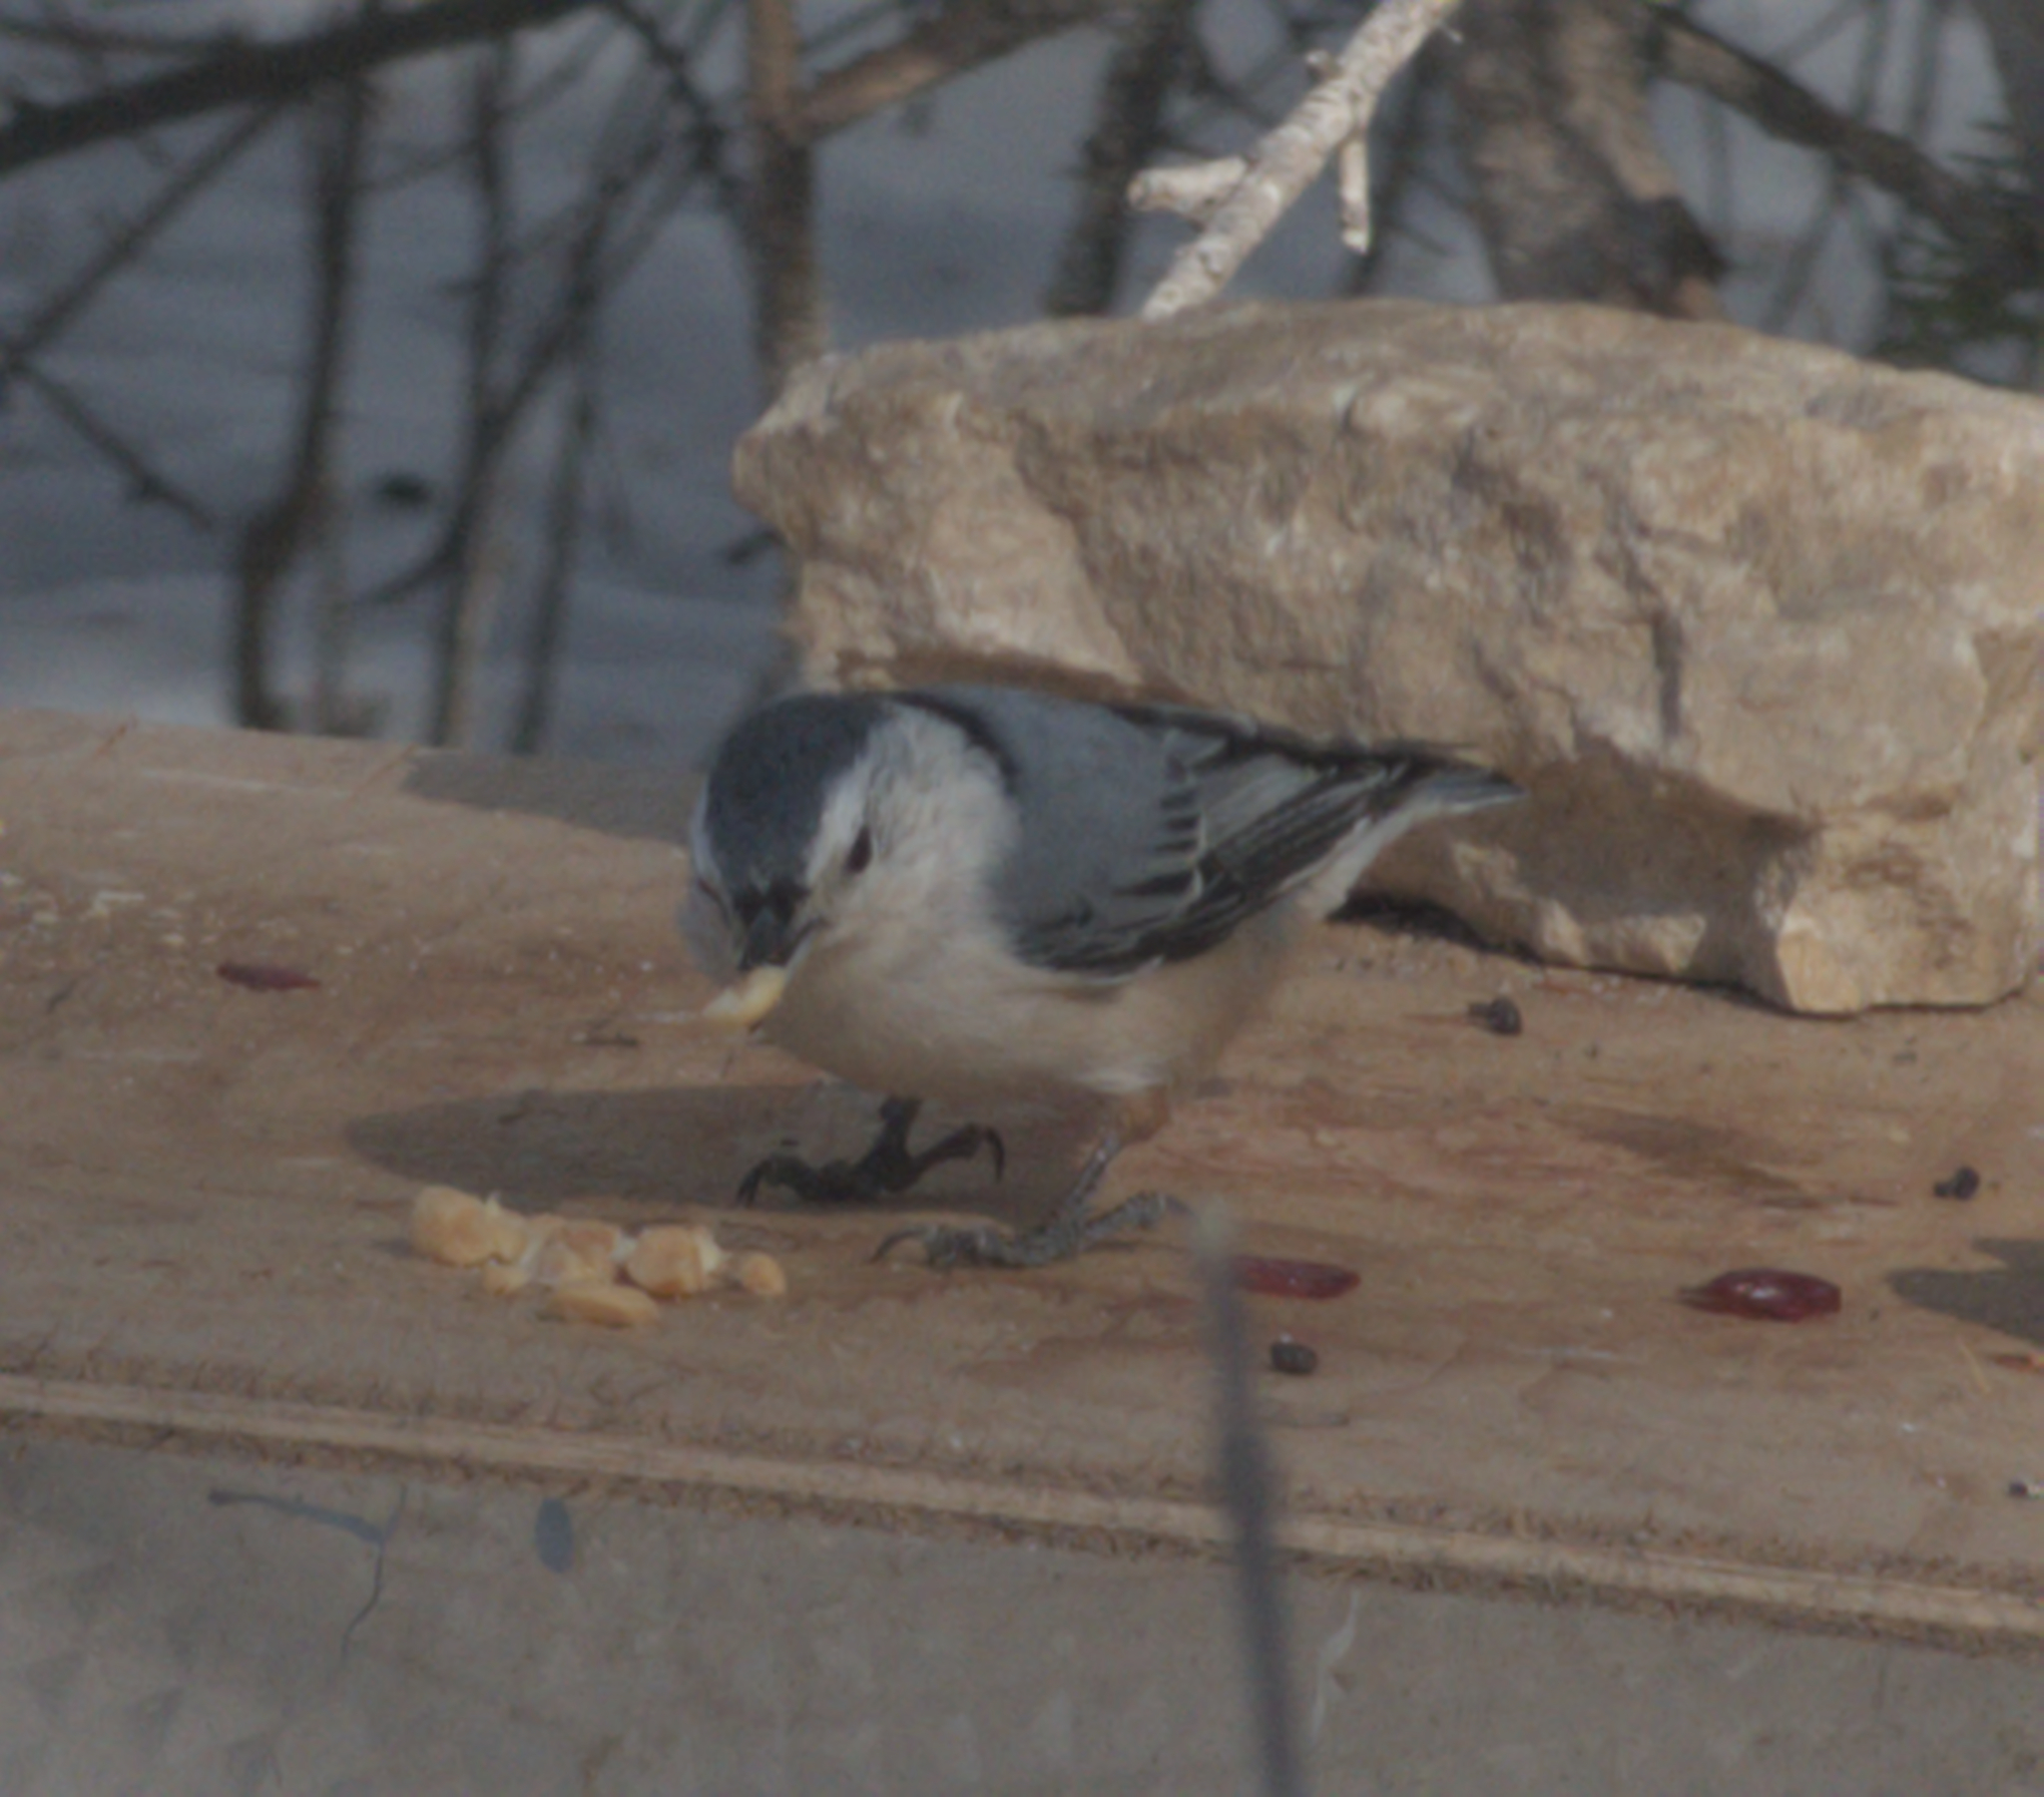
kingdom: Animalia
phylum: Chordata
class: Aves
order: Passeriformes
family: Sittidae
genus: Sitta
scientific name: Sitta carolinensis
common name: White-breasted nuthatch
